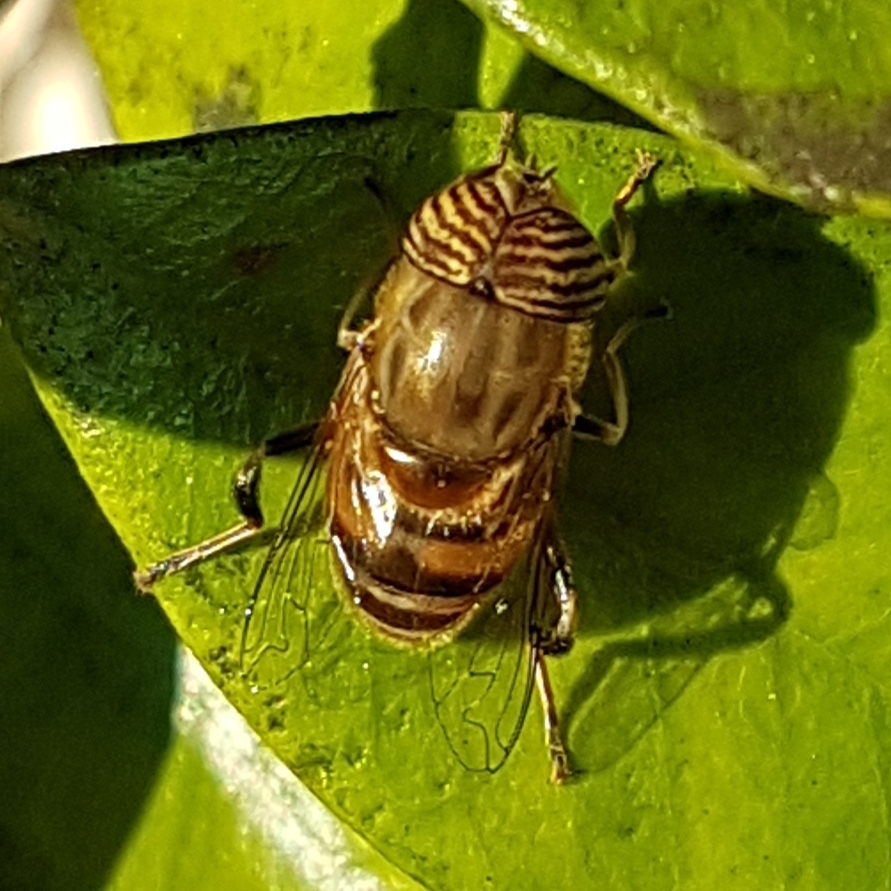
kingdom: Animalia
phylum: Arthropoda
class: Insecta
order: Diptera
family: Syrphidae
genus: Eristalinus
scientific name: Eristalinus taeniops
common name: Syrphid fly
